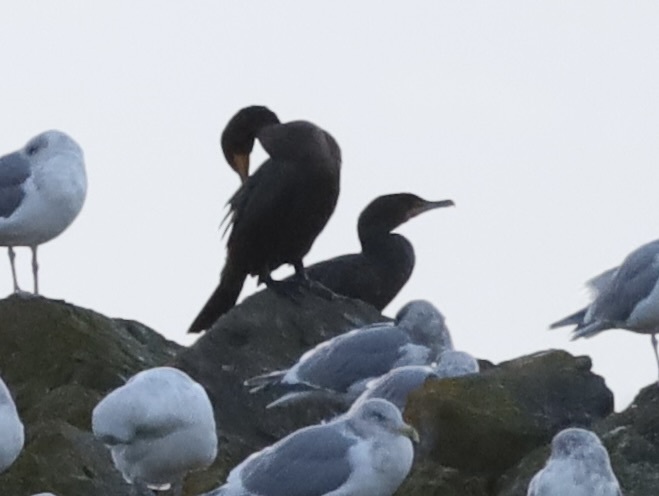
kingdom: Animalia
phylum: Chordata
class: Aves
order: Suliformes
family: Phalacrocoracidae
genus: Phalacrocorax
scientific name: Phalacrocorax auritus
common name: Double-crested cormorant
